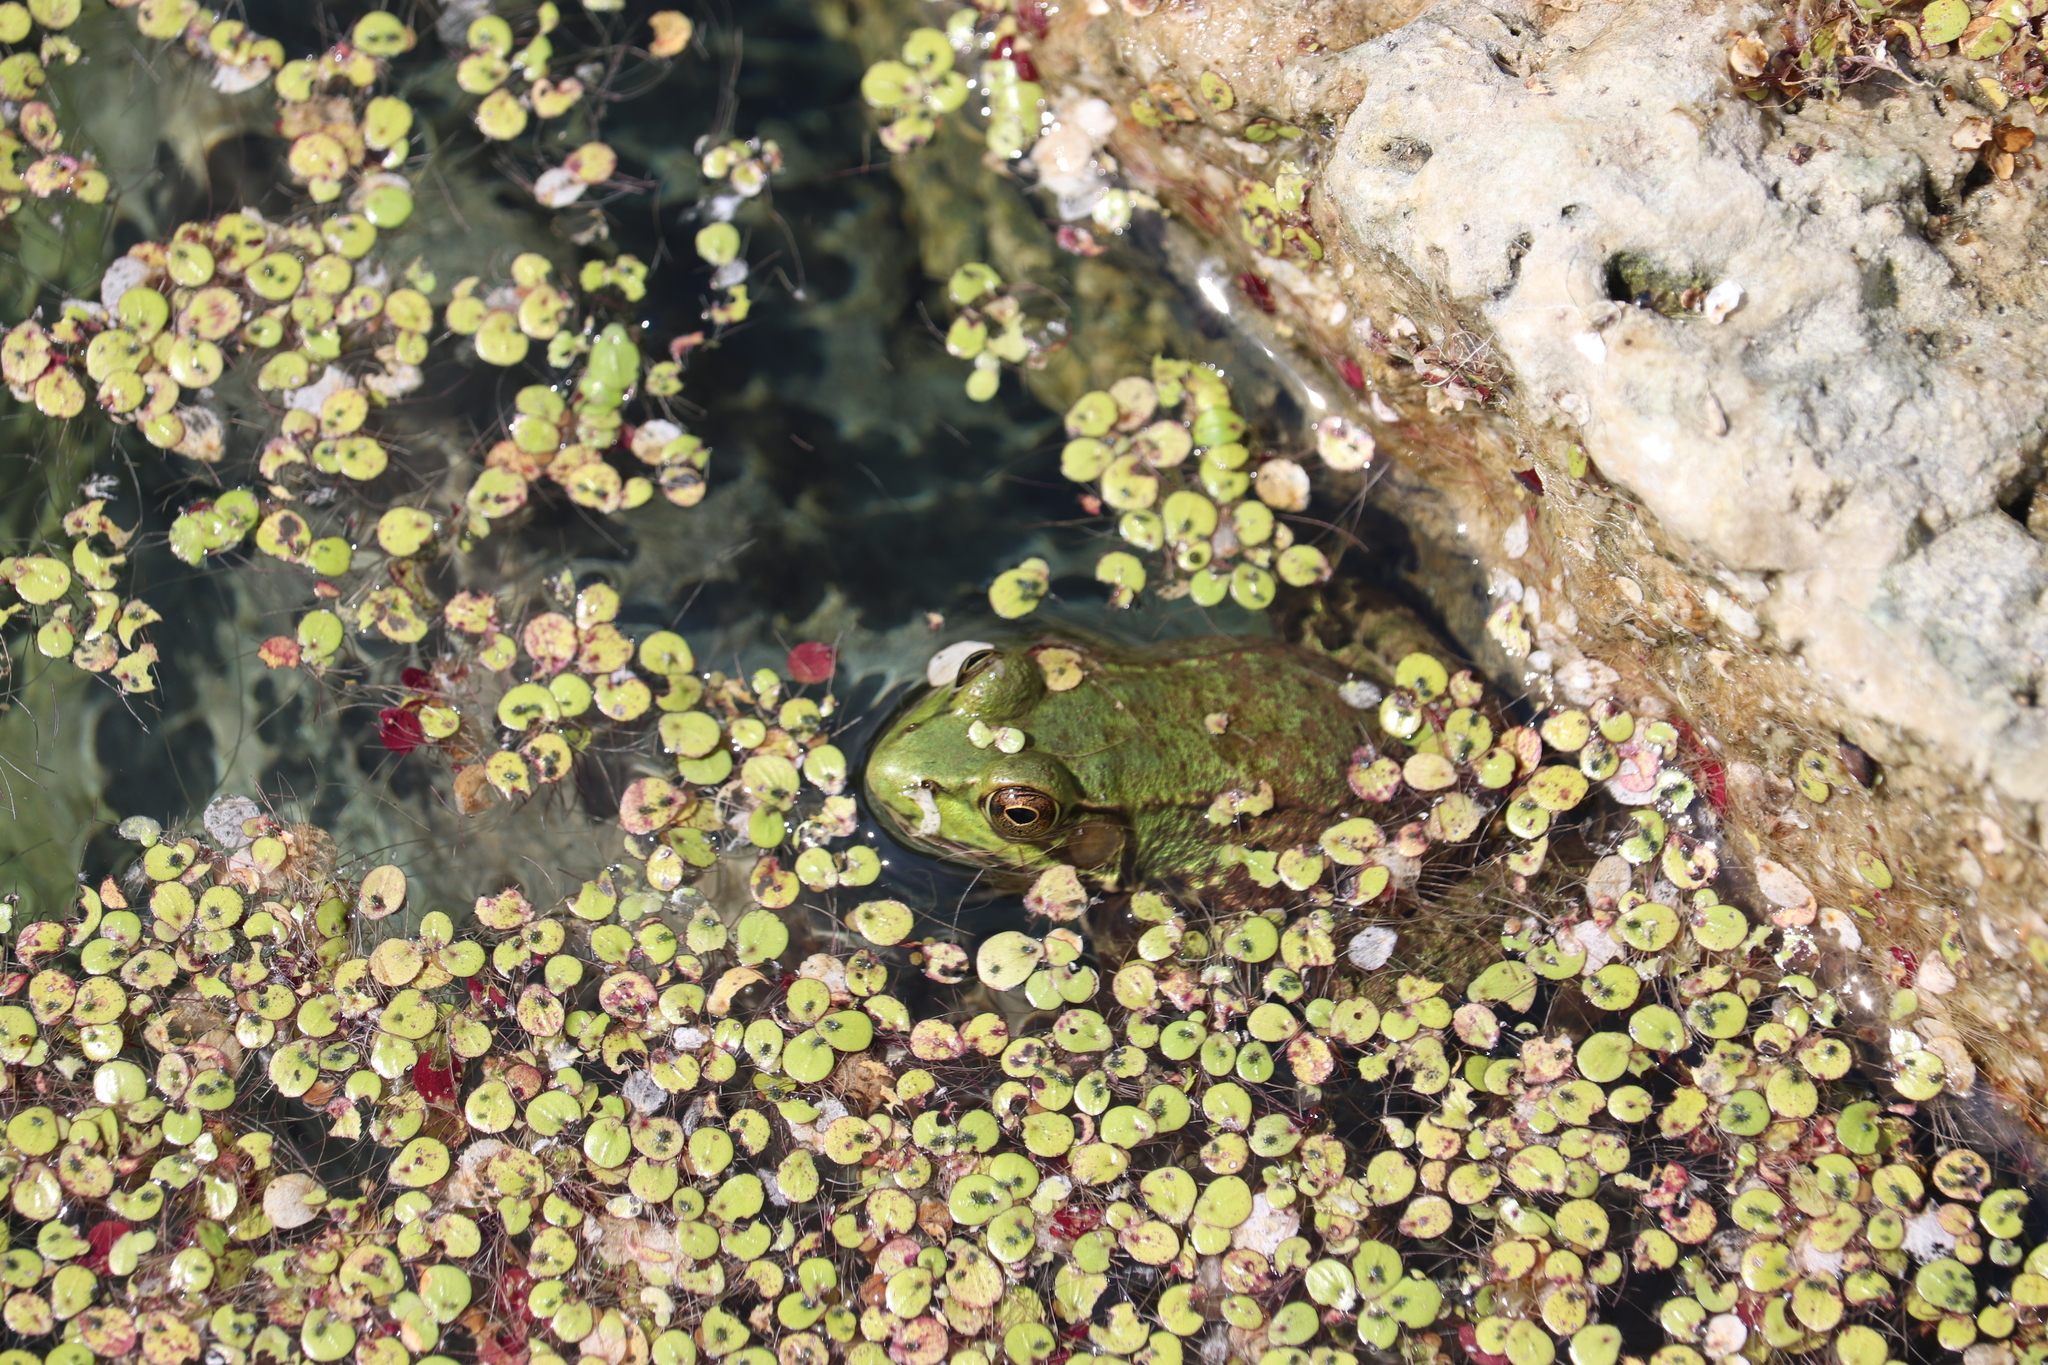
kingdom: Animalia
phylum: Chordata
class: Amphibia
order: Anura
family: Ranidae
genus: Lithobates
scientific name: Lithobates clamitans
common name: Green frog
